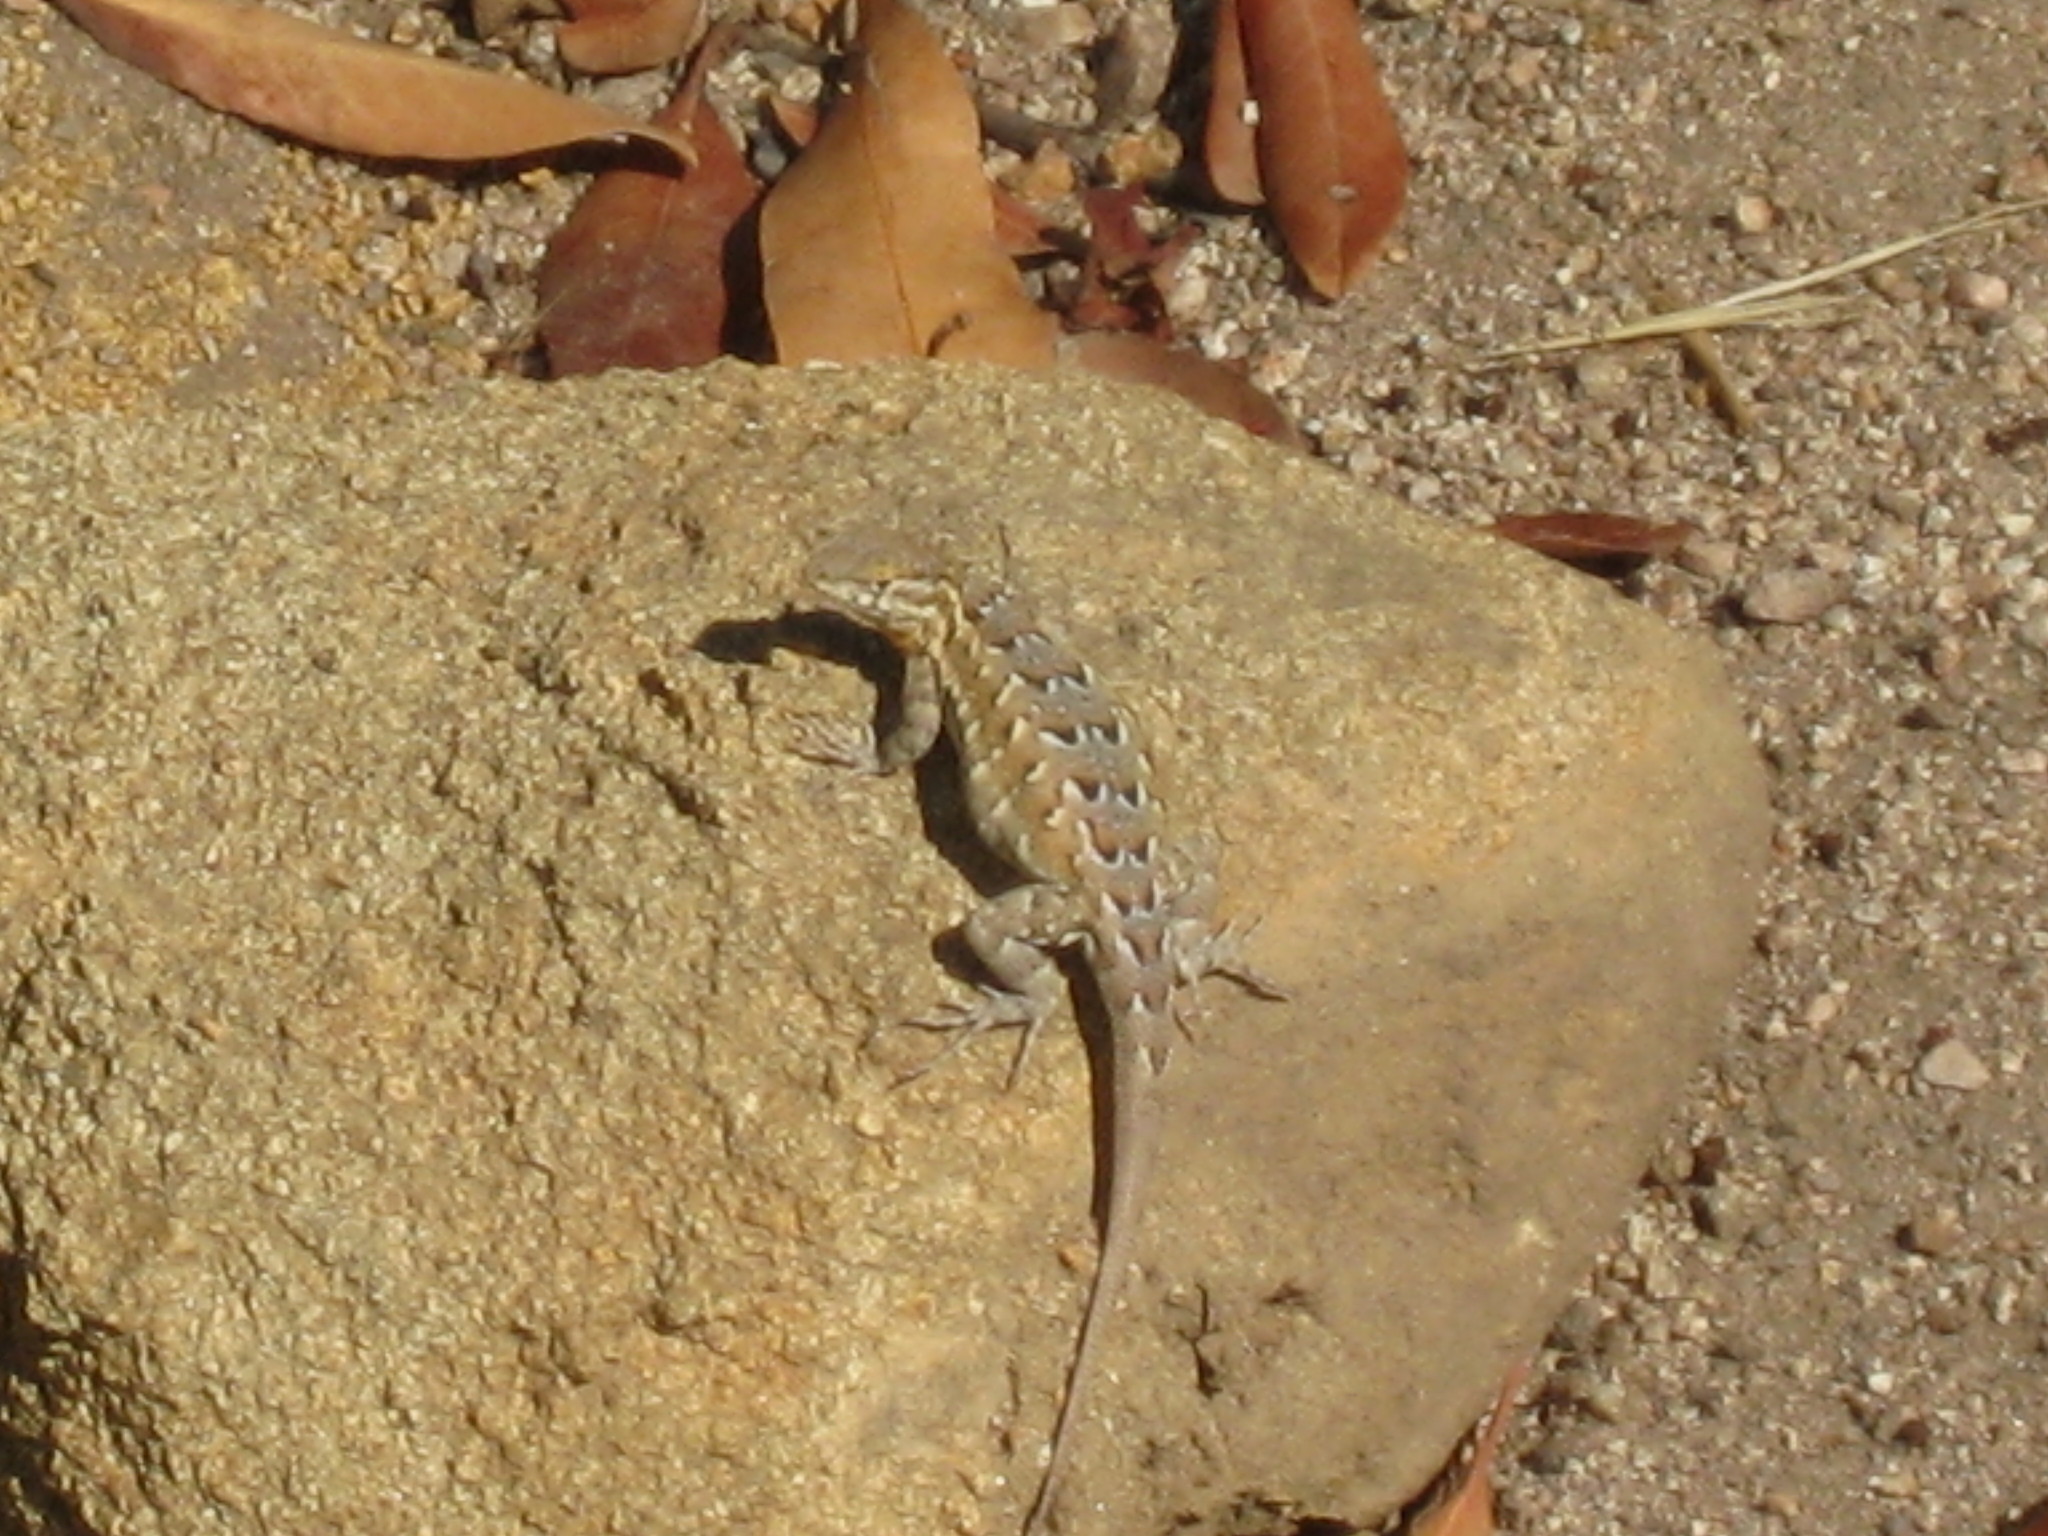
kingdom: Animalia
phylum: Chordata
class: Squamata
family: Phrynosomatidae
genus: Uta
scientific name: Uta stansburiana
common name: Side-blotched lizard
